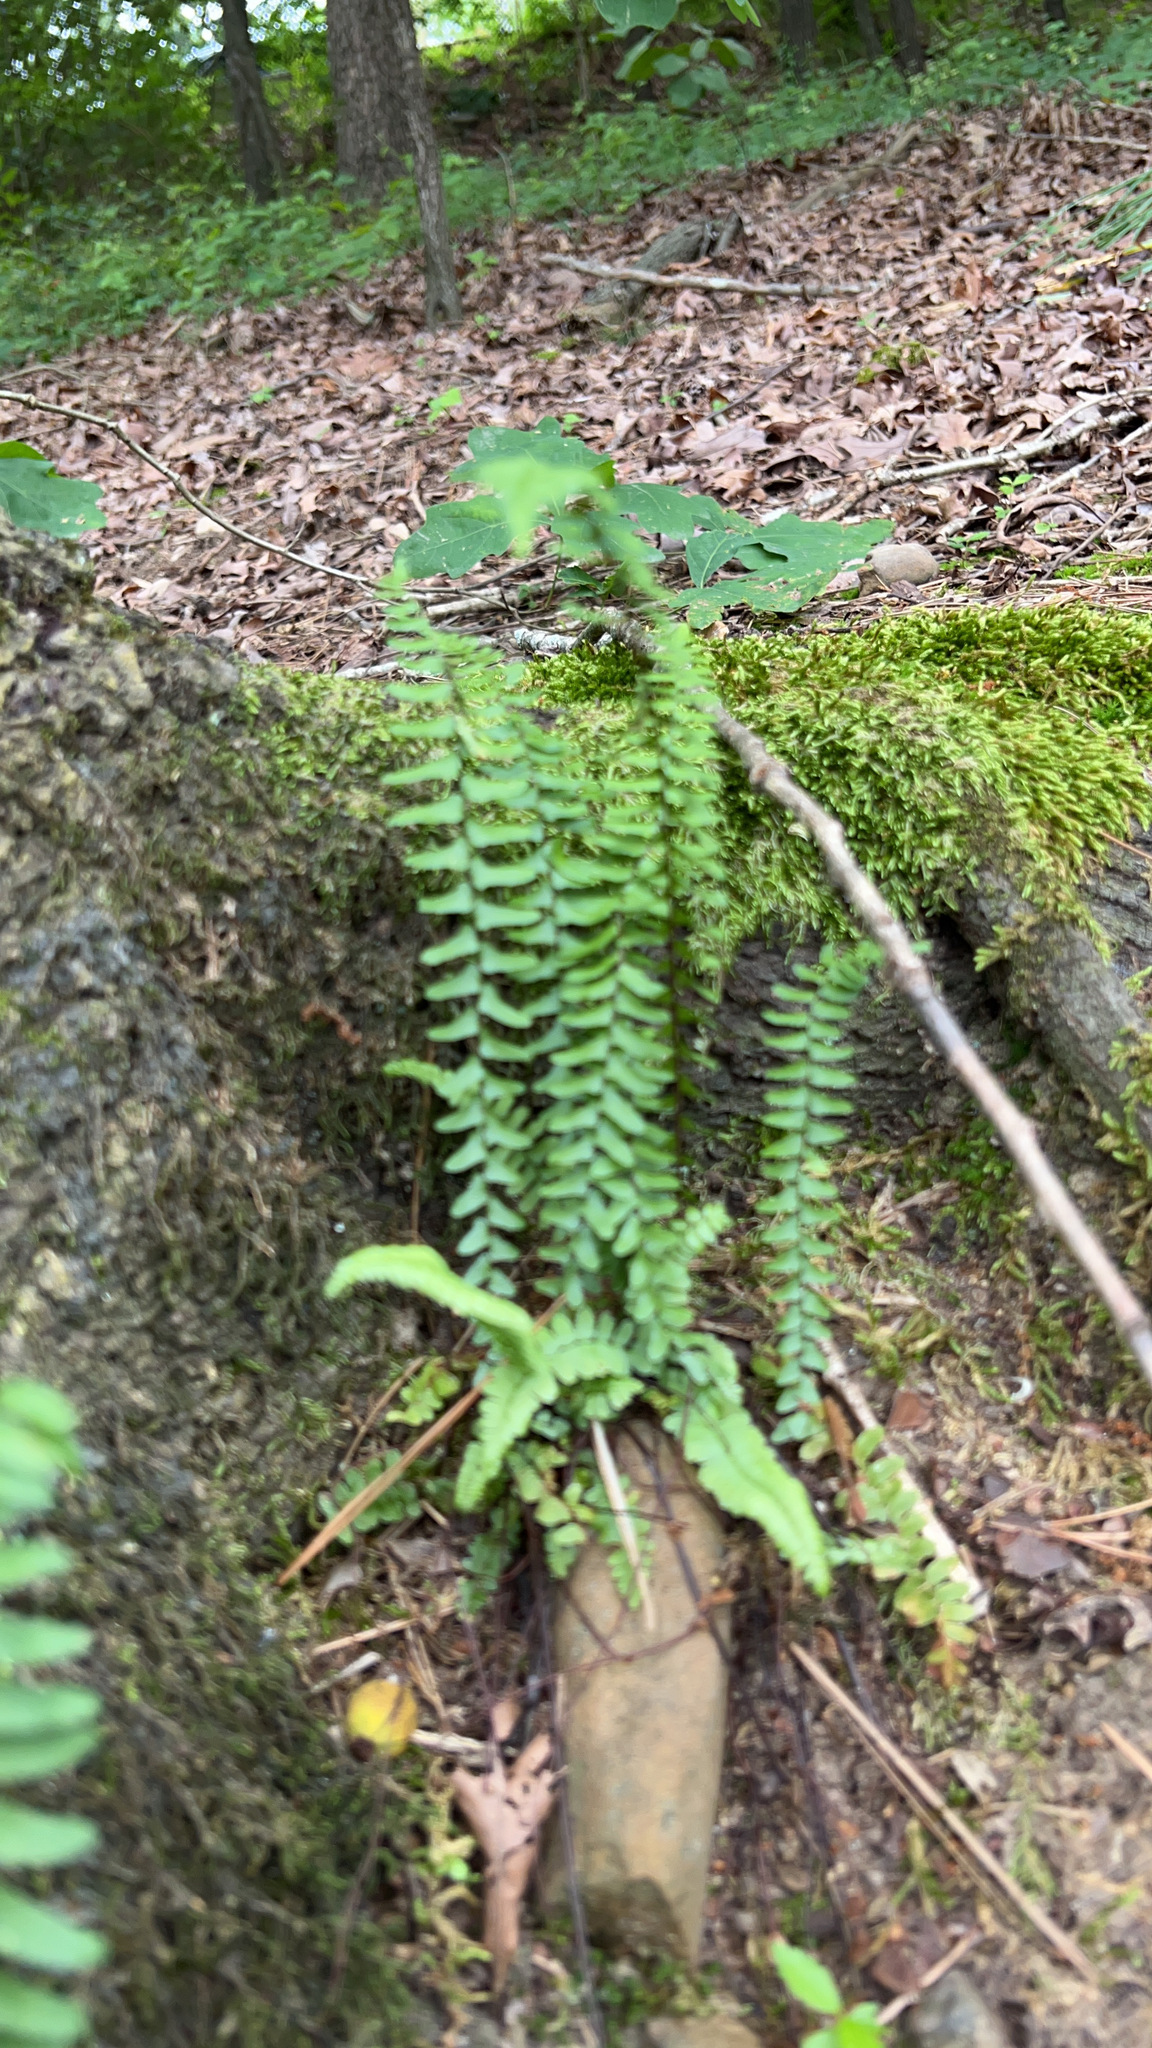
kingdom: Plantae
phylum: Tracheophyta
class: Polypodiopsida
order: Polypodiales
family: Aspleniaceae
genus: Asplenium
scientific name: Asplenium platyneuron
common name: Ebony spleenwort
